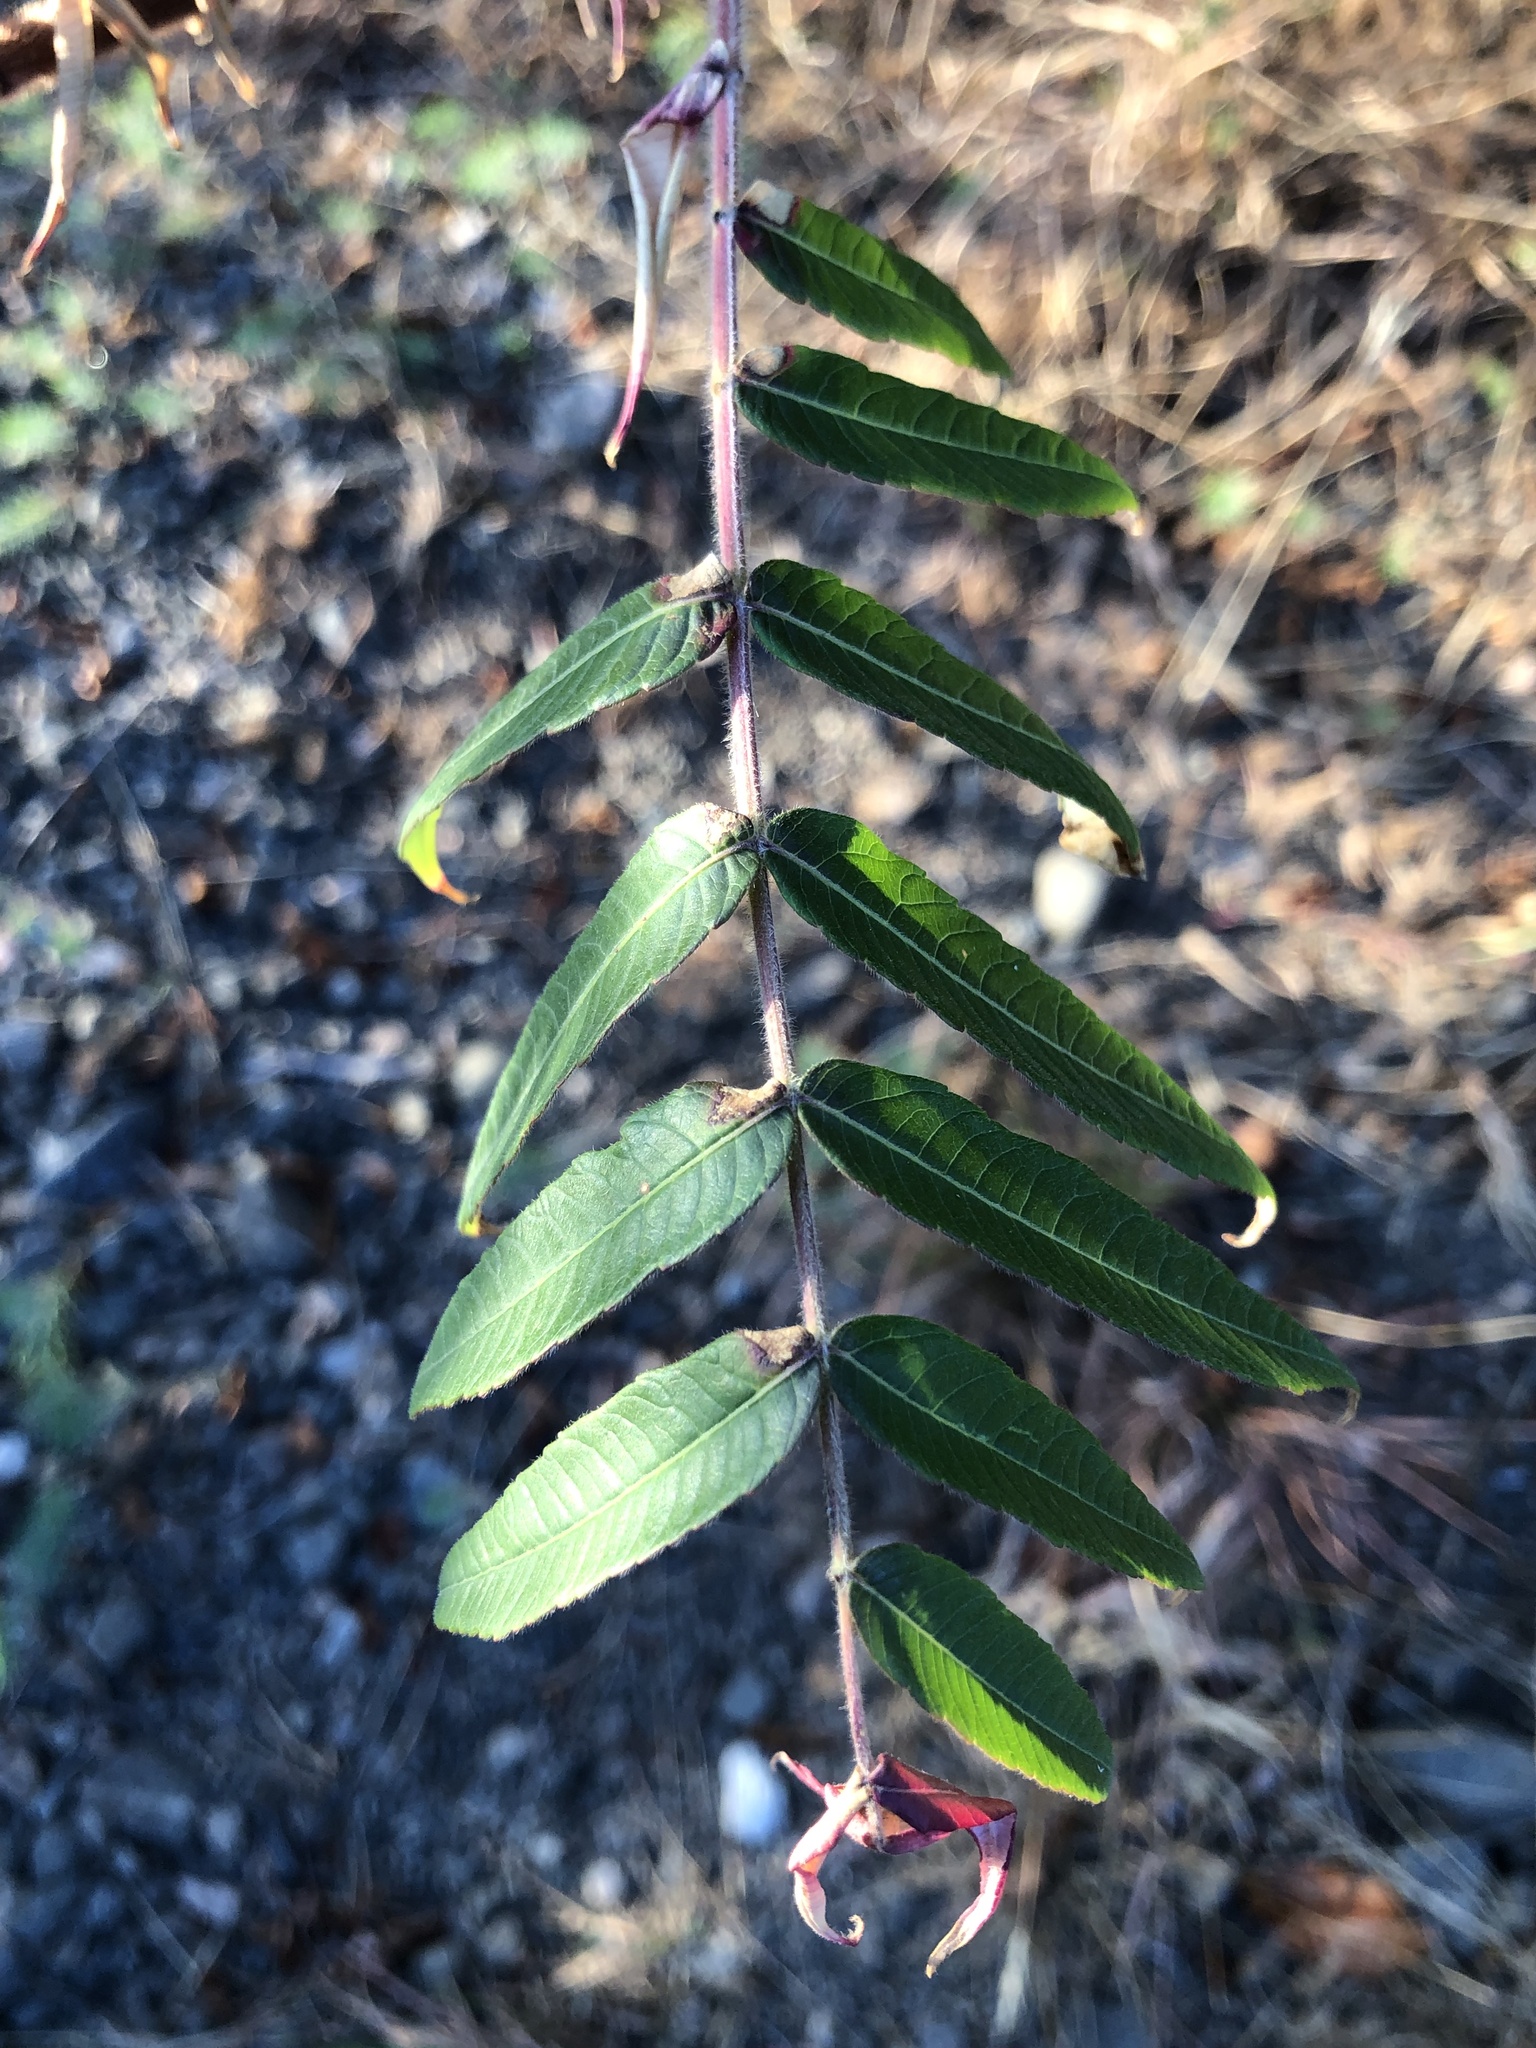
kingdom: Plantae
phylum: Tracheophyta
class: Magnoliopsida
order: Sapindales
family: Anacardiaceae
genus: Rhus
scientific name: Rhus typhina
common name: Staghorn sumac
